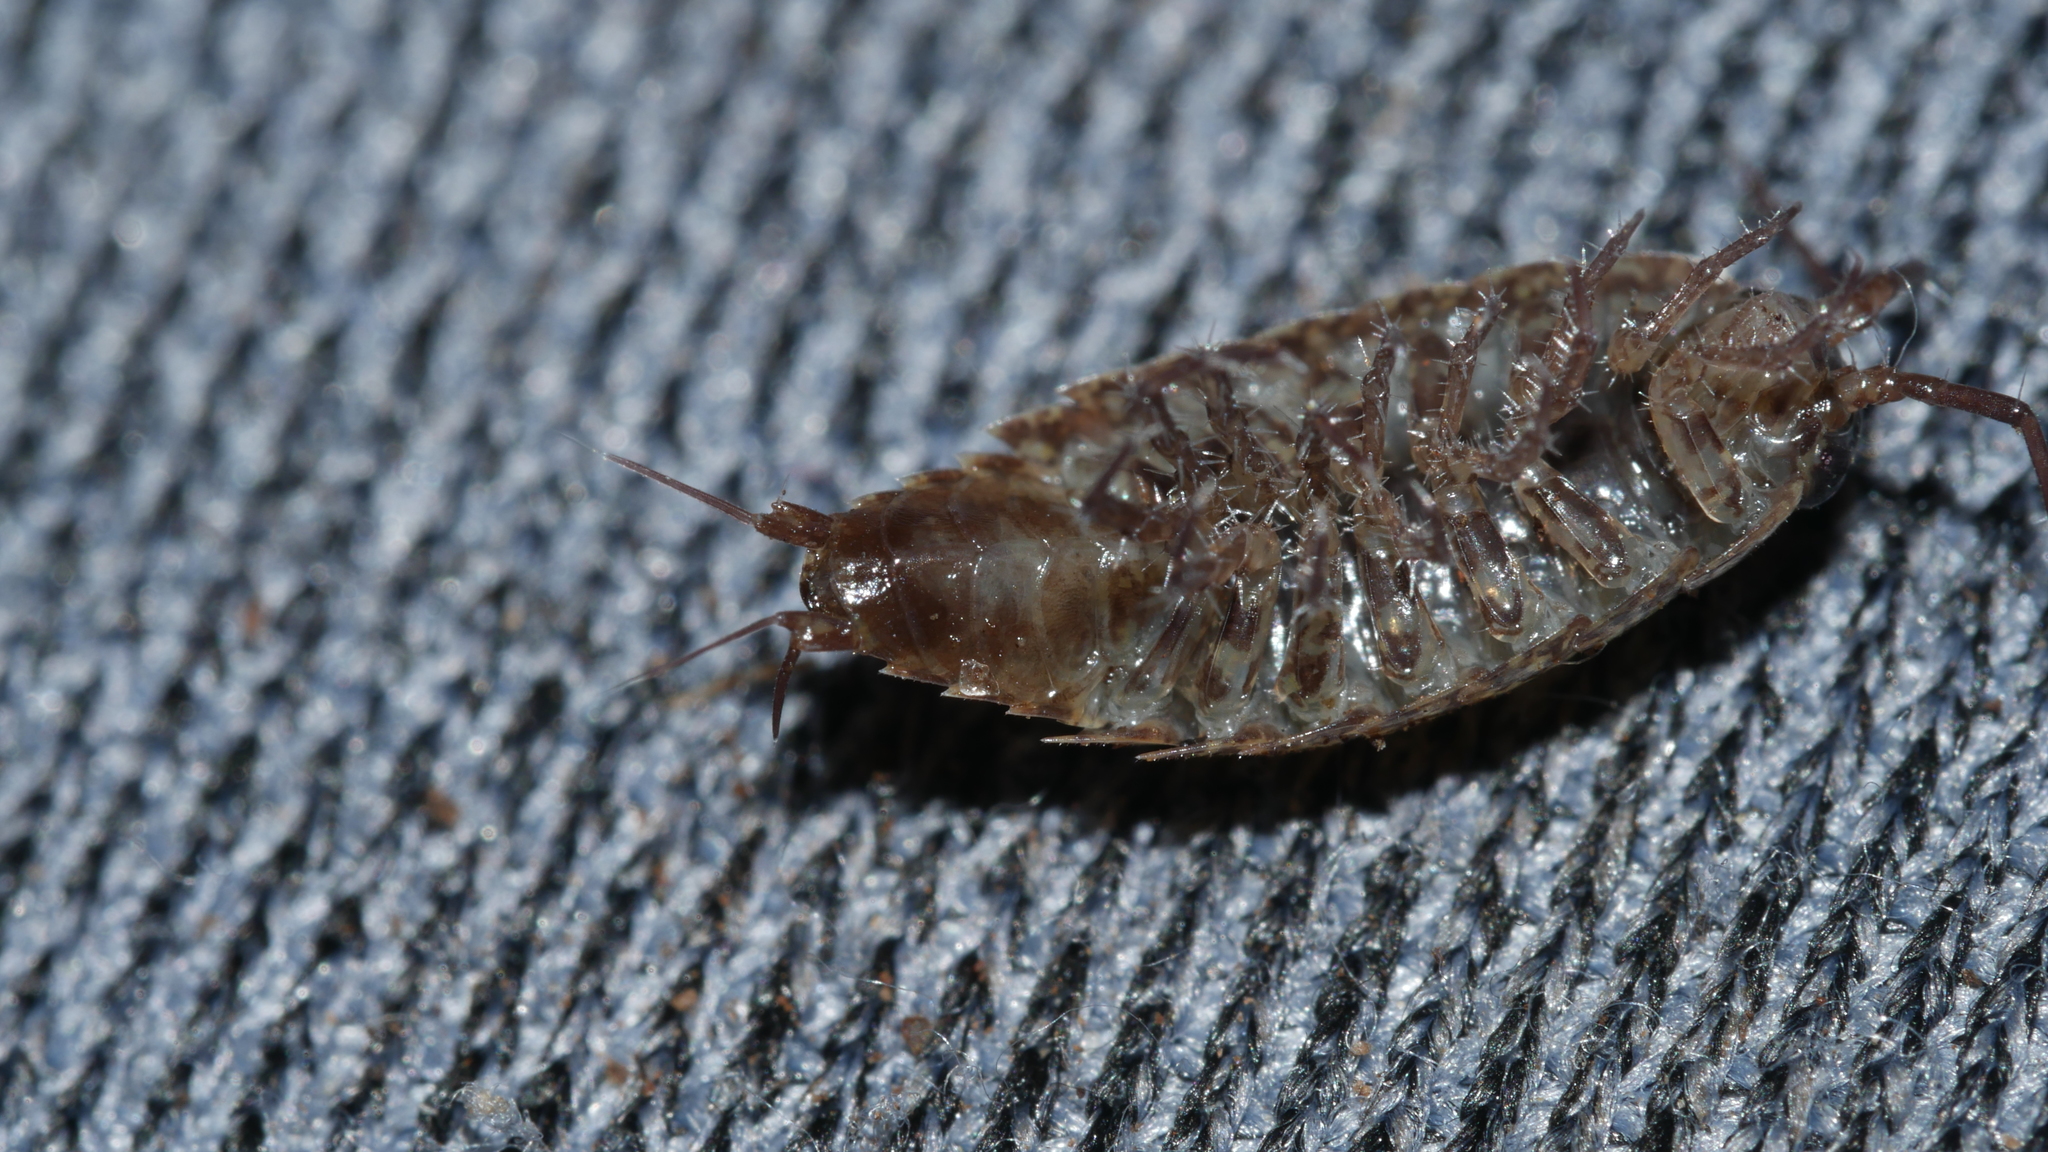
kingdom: Animalia
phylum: Arthropoda
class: Malacostraca
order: Isopoda
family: Ligiidae
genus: Ligidium
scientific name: Ligidium elrodii
